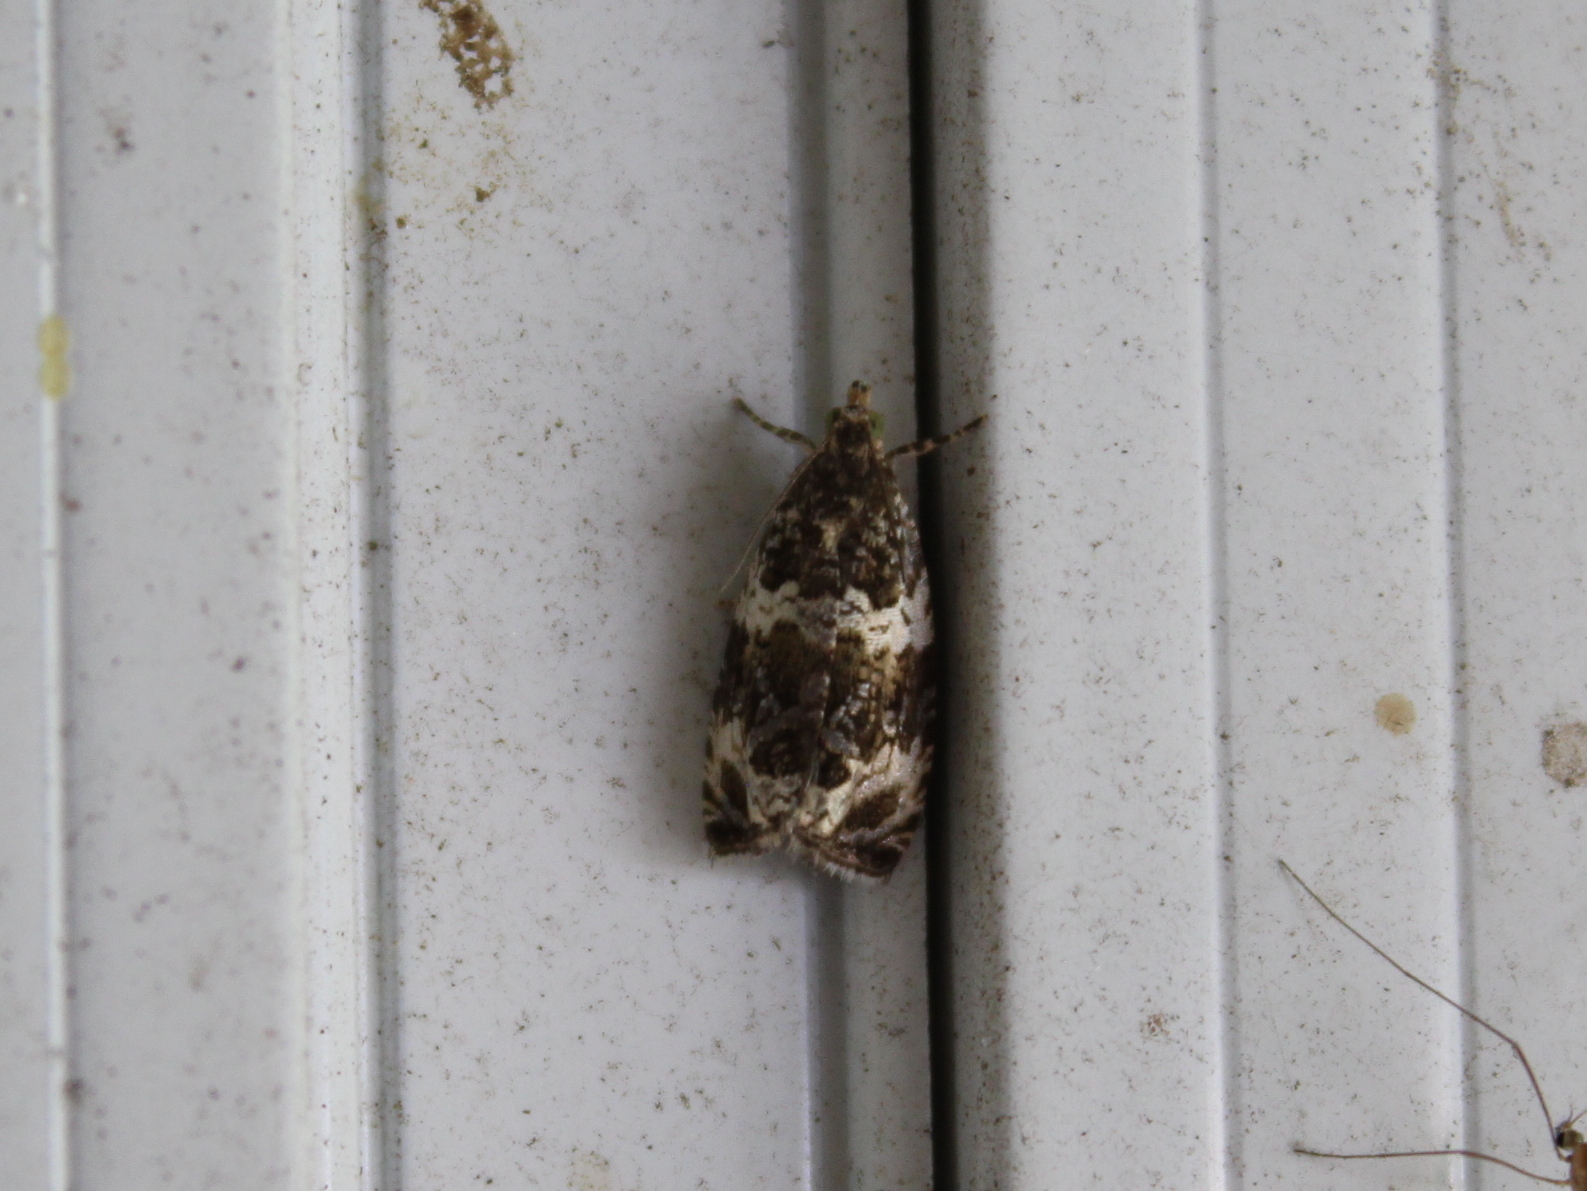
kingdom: Animalia
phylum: Arthropoda
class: Insecta
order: Lepidoptera
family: Tortricidae
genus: Olethreutes
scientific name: Olethreutes valdanum
